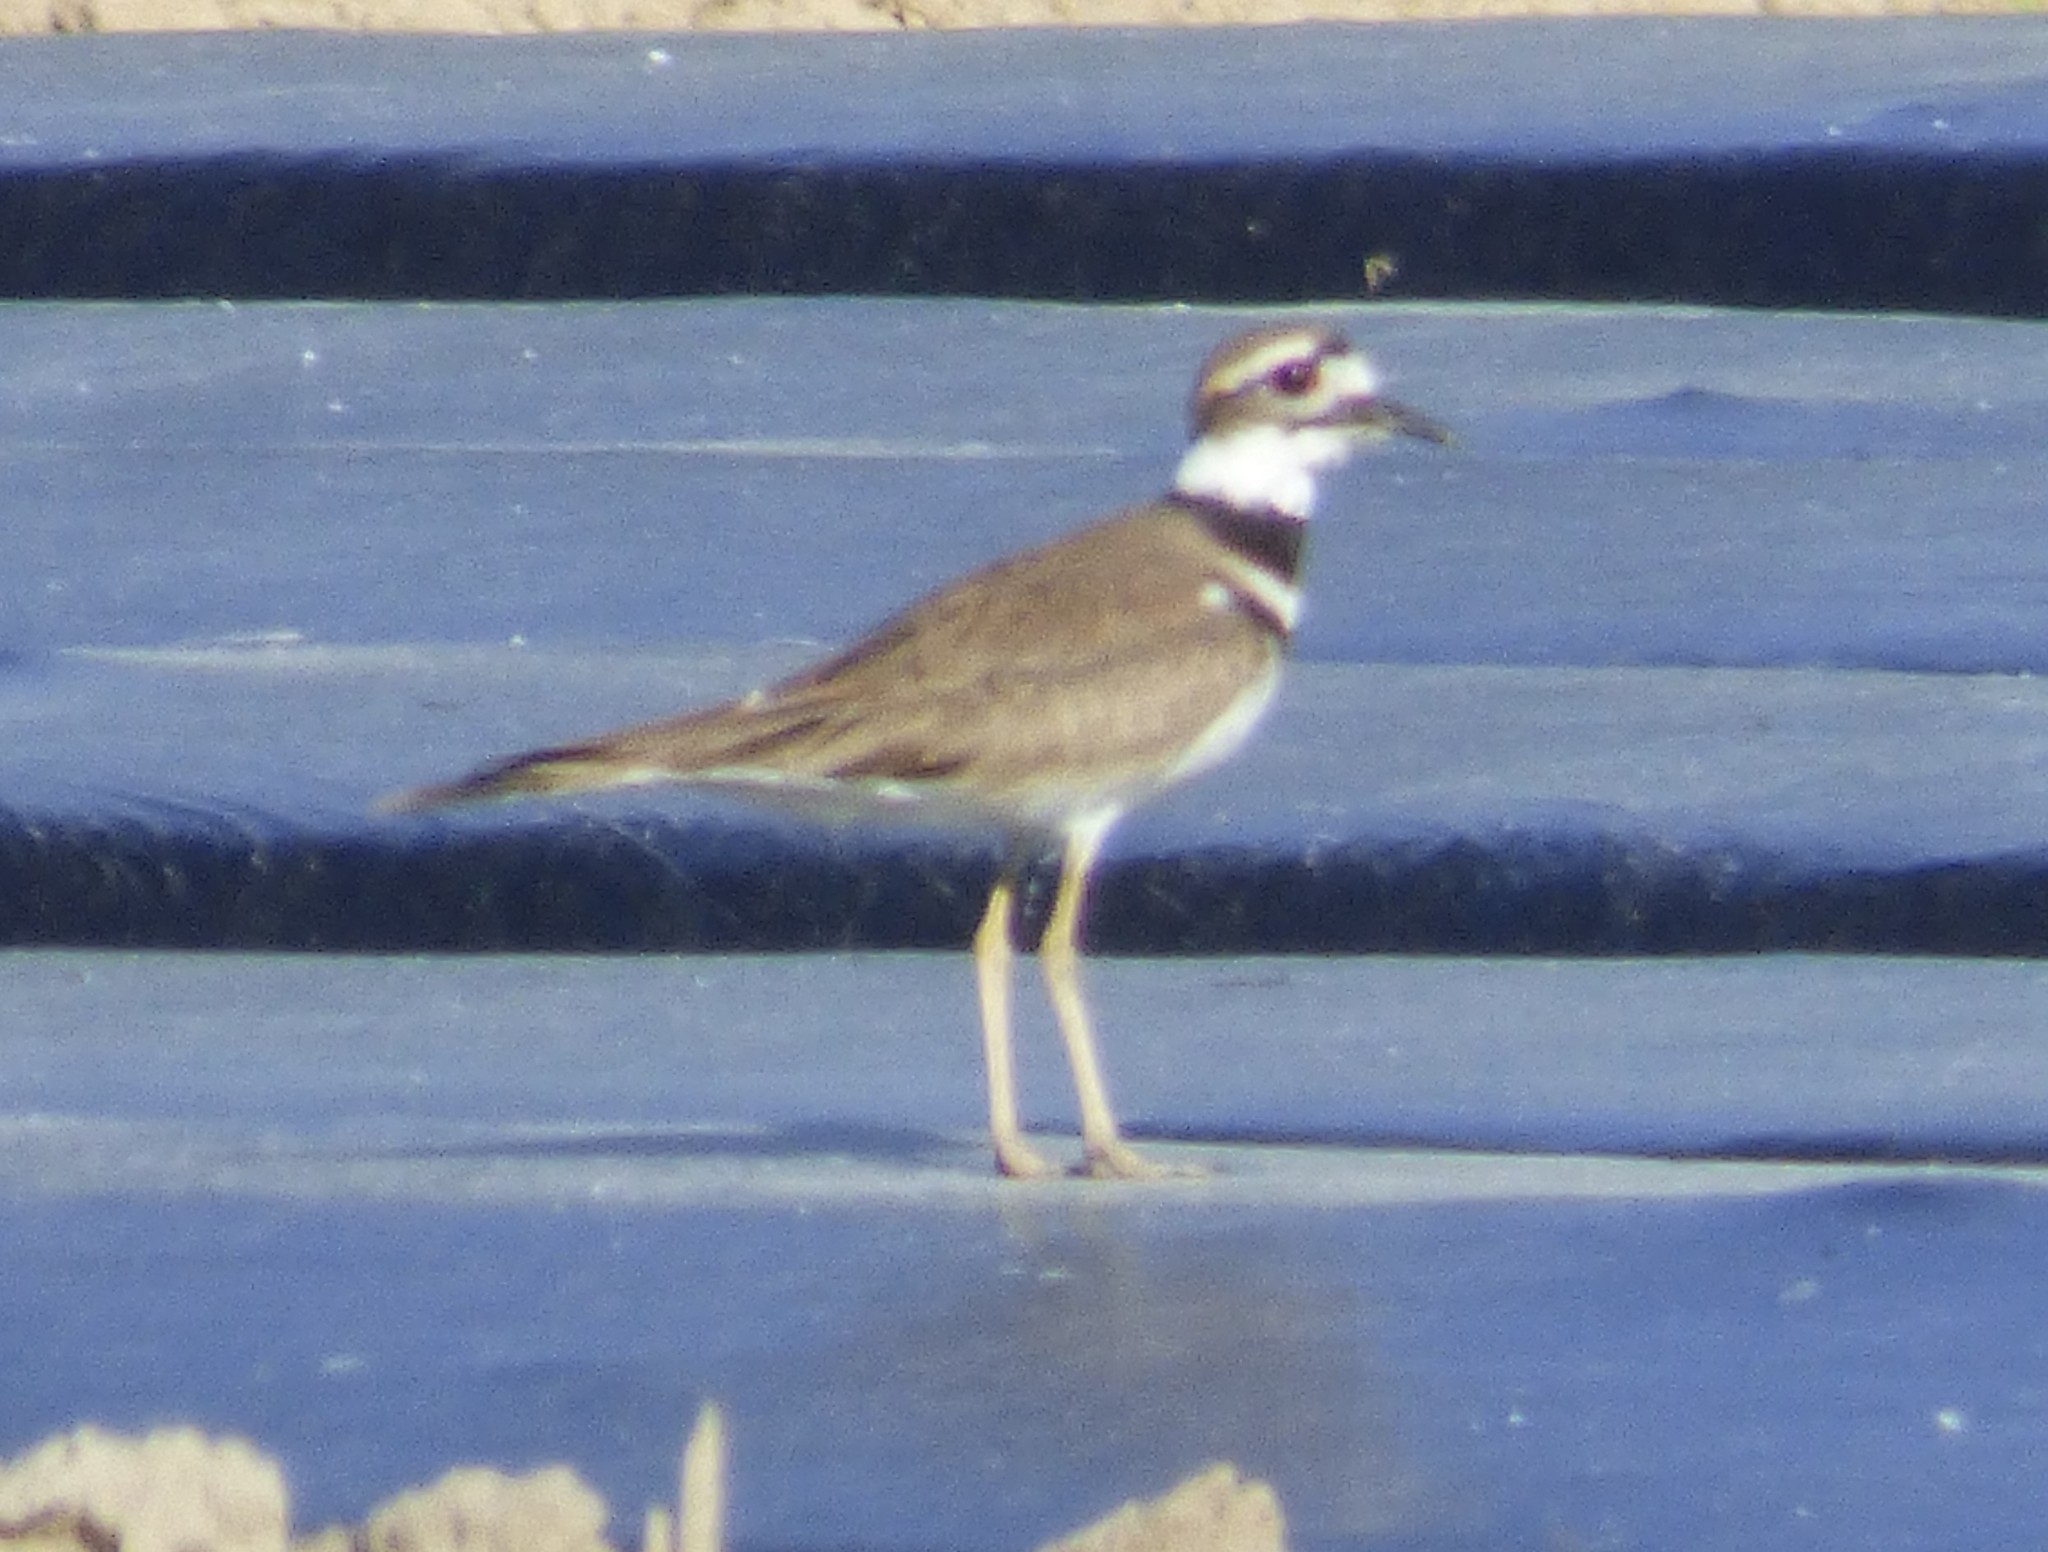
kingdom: Animalia
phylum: Chordata
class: Aves
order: Charadriiformes
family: Charadriidae
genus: Charadrius
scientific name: Charadrius vociferus
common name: Killdeer
